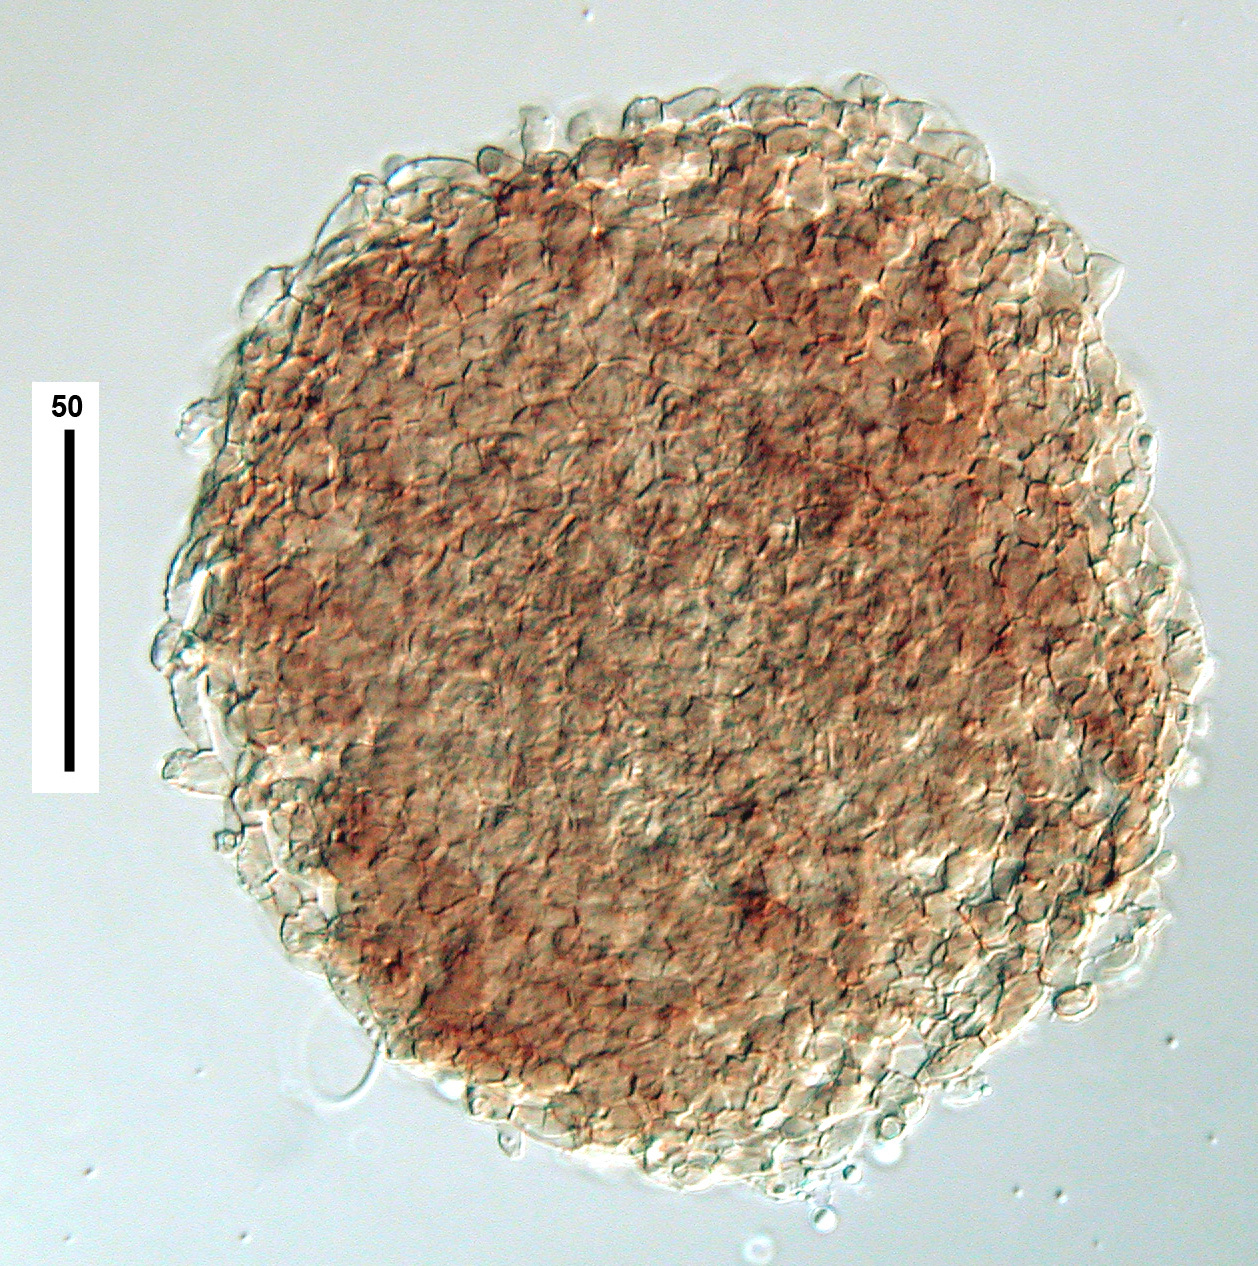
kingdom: Fungi
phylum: Ascomycota
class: Leotiomycetes
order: Helotiales
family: Gelatinodiscaceae
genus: Clathrosporium
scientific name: Clathrosporium intricatum
